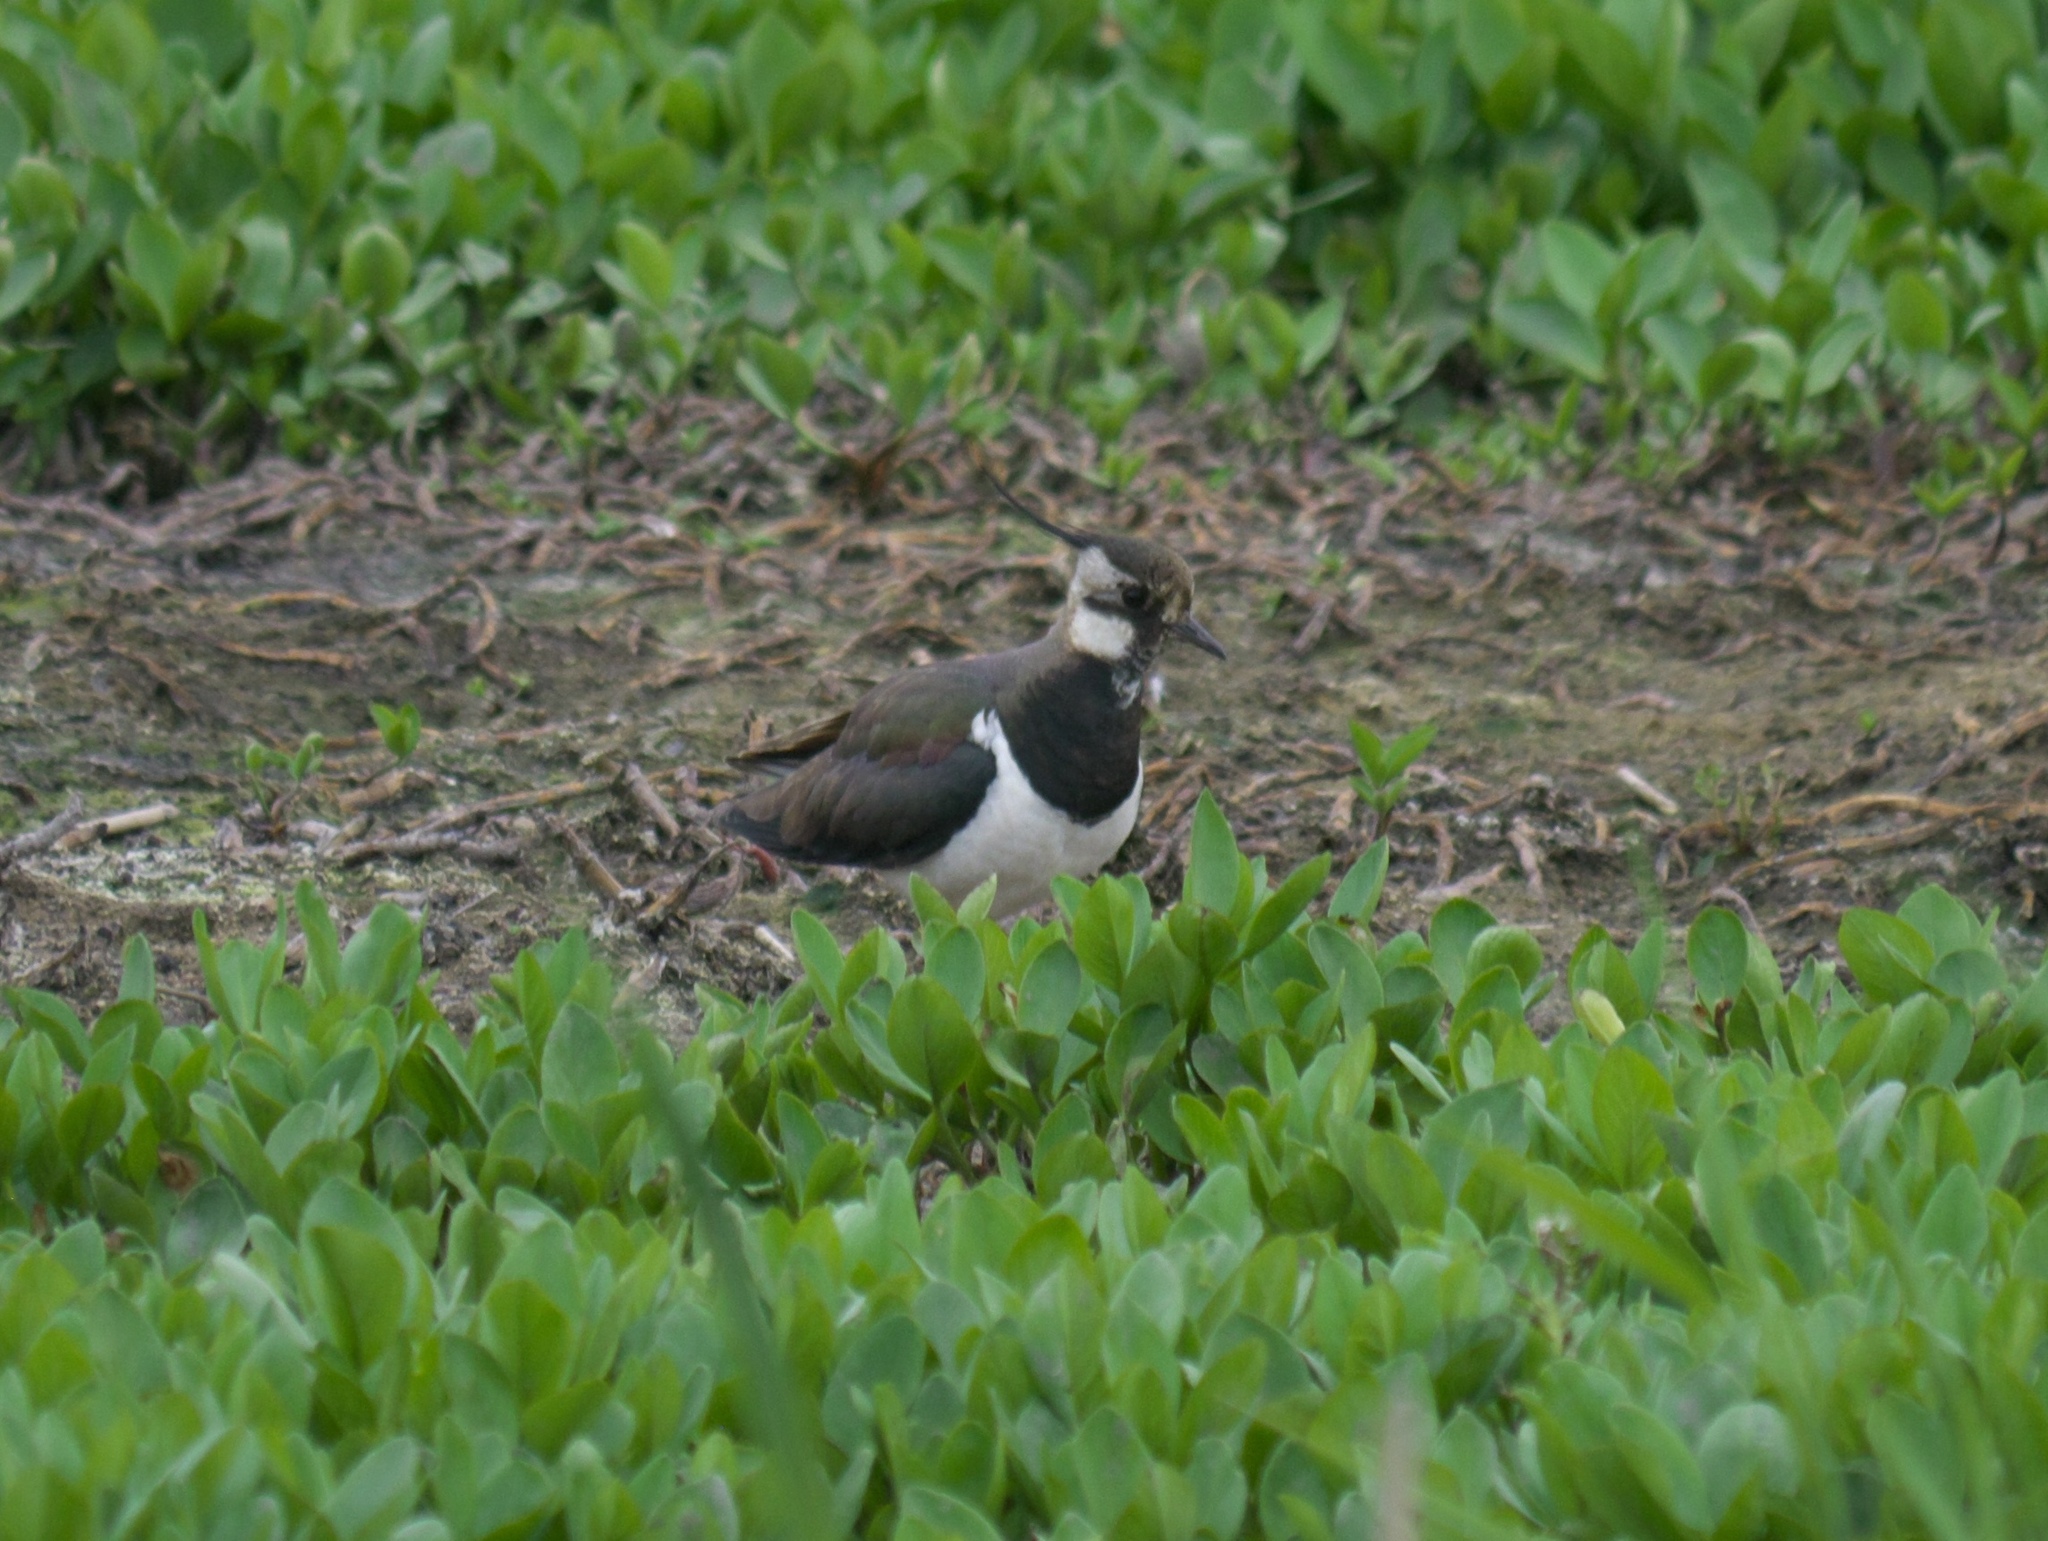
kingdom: Animalia
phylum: Chordata
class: Aves
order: Charadriiformes
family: Charadriidae
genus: Vanellus
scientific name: Vanellus vanellus
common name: Northern lapwing
